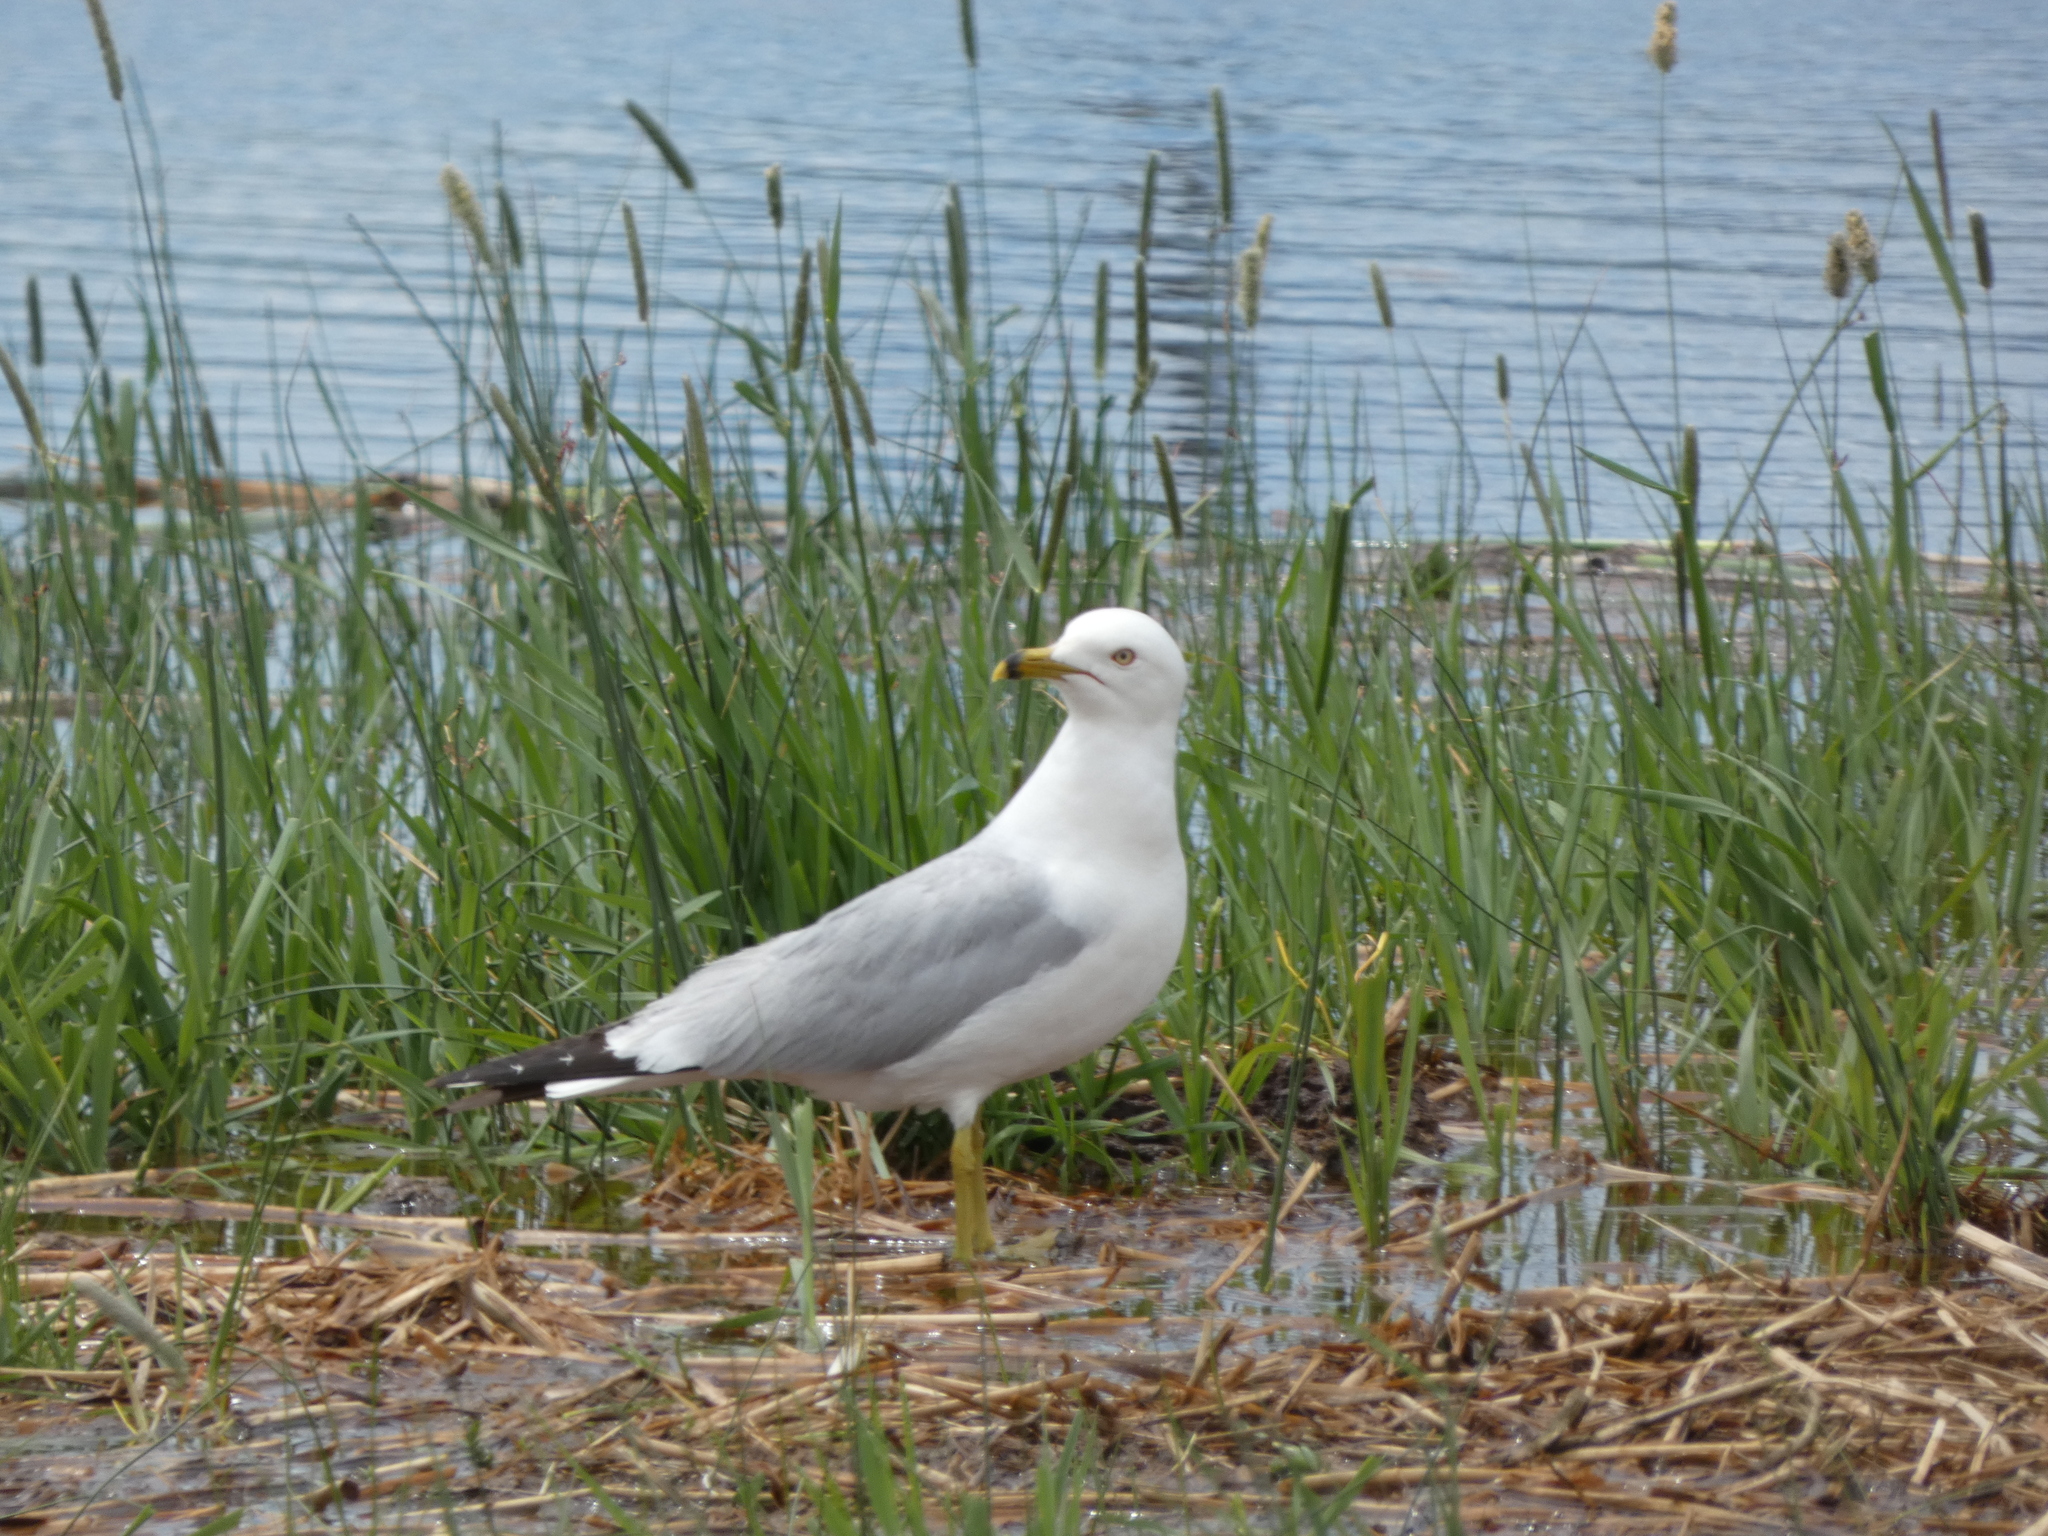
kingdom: Animalia
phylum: Chordata
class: Aves
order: Charadriiformes
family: Laridae
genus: Larus
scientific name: Larus delawarensis
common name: Ring-billed gull
